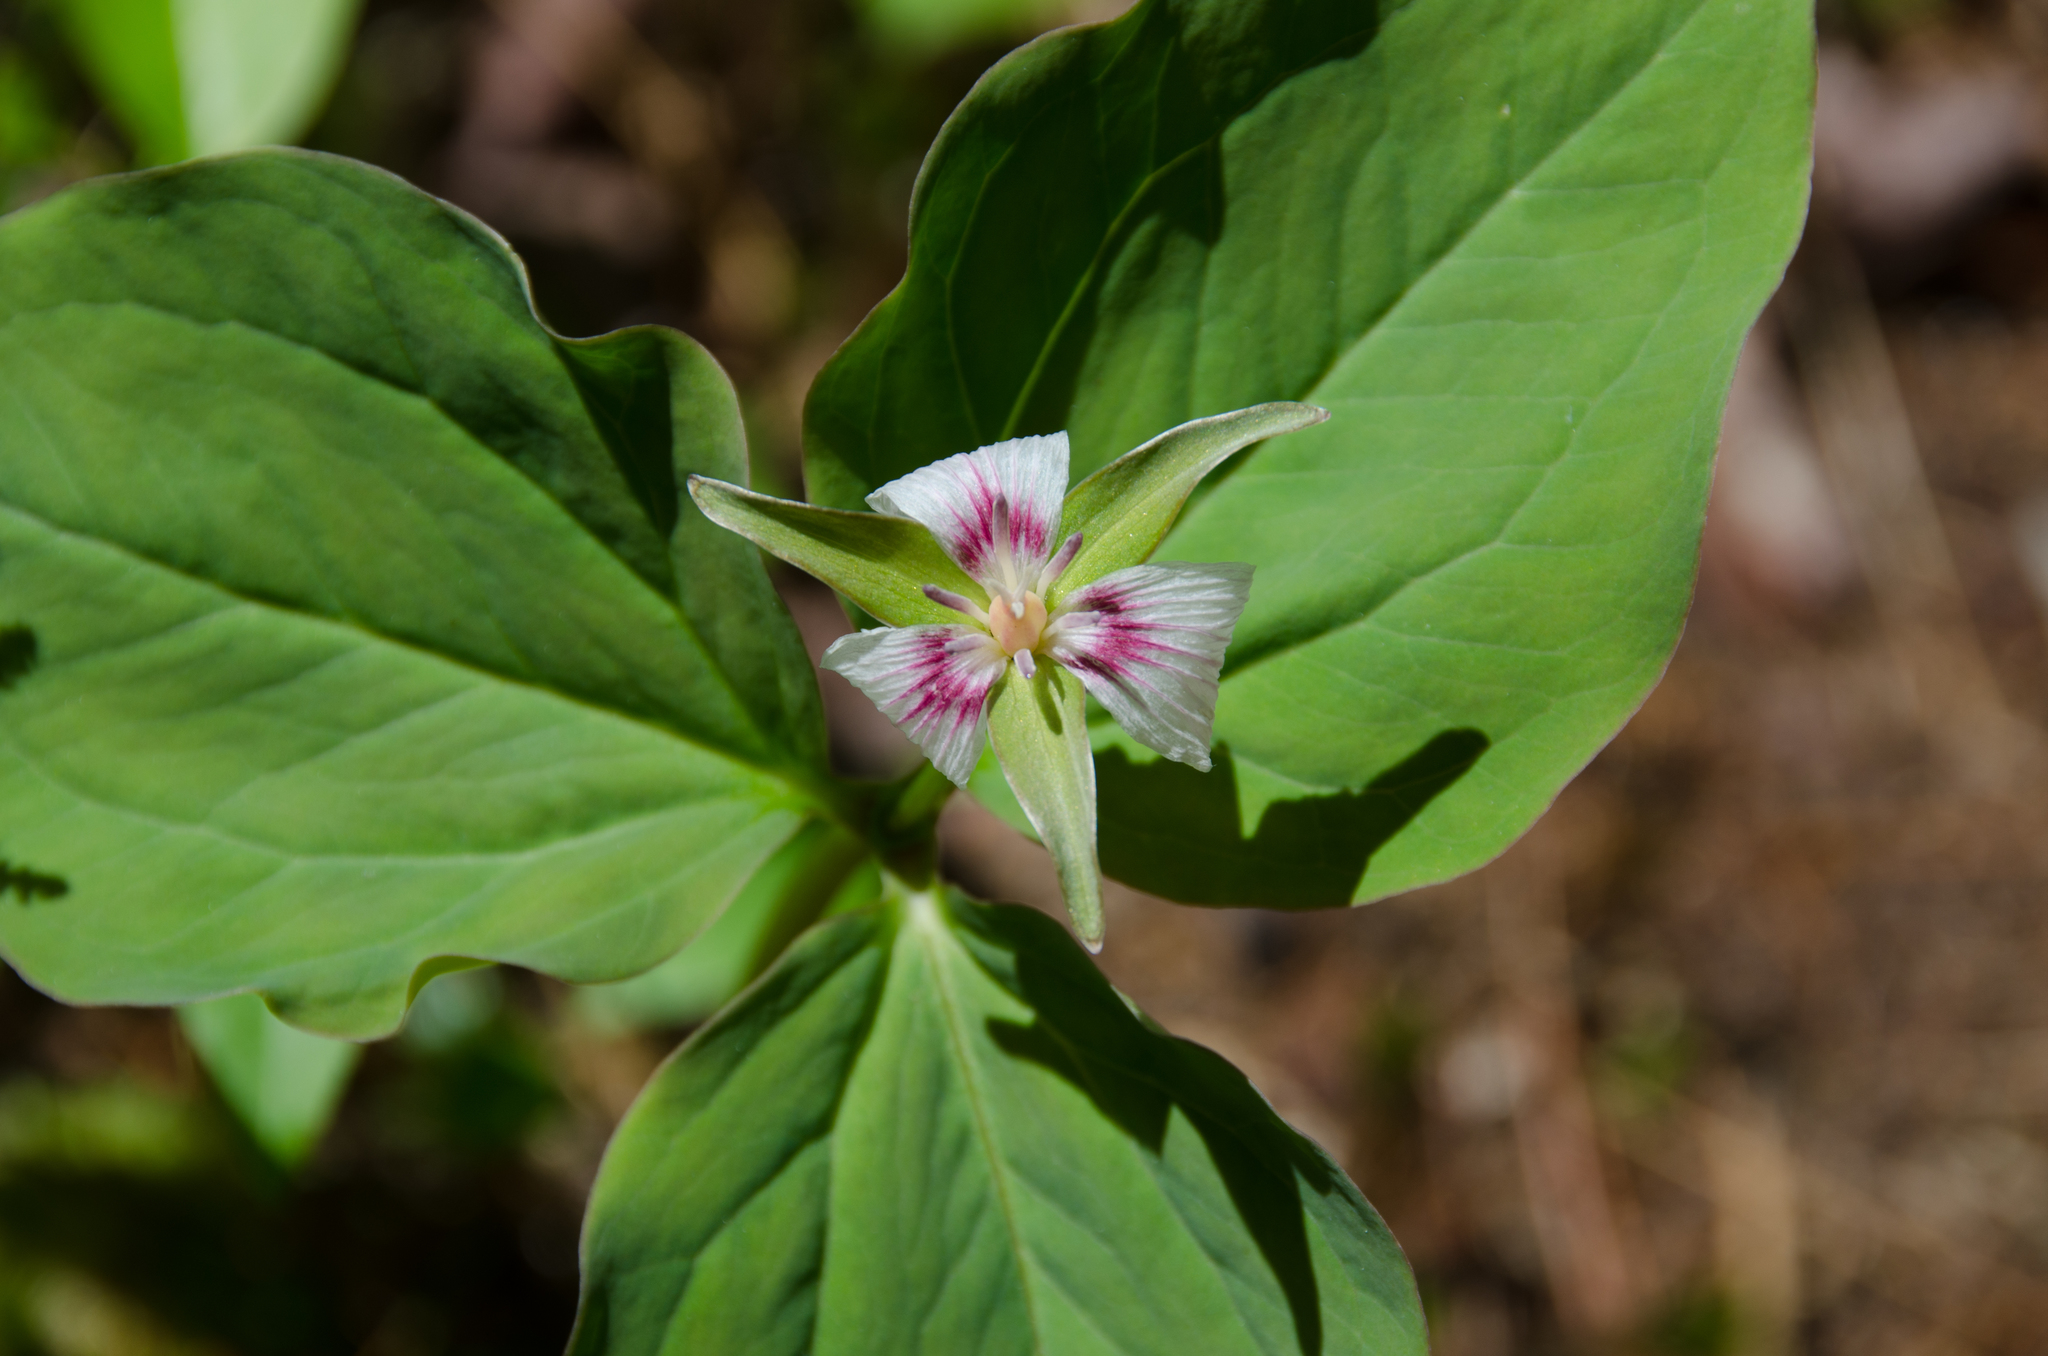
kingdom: Plantae
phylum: Tracheophyta
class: Liliopsida
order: Liliales
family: Melanthiaceae
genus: Trillium
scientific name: Trillium undulatum
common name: Paint trillium
